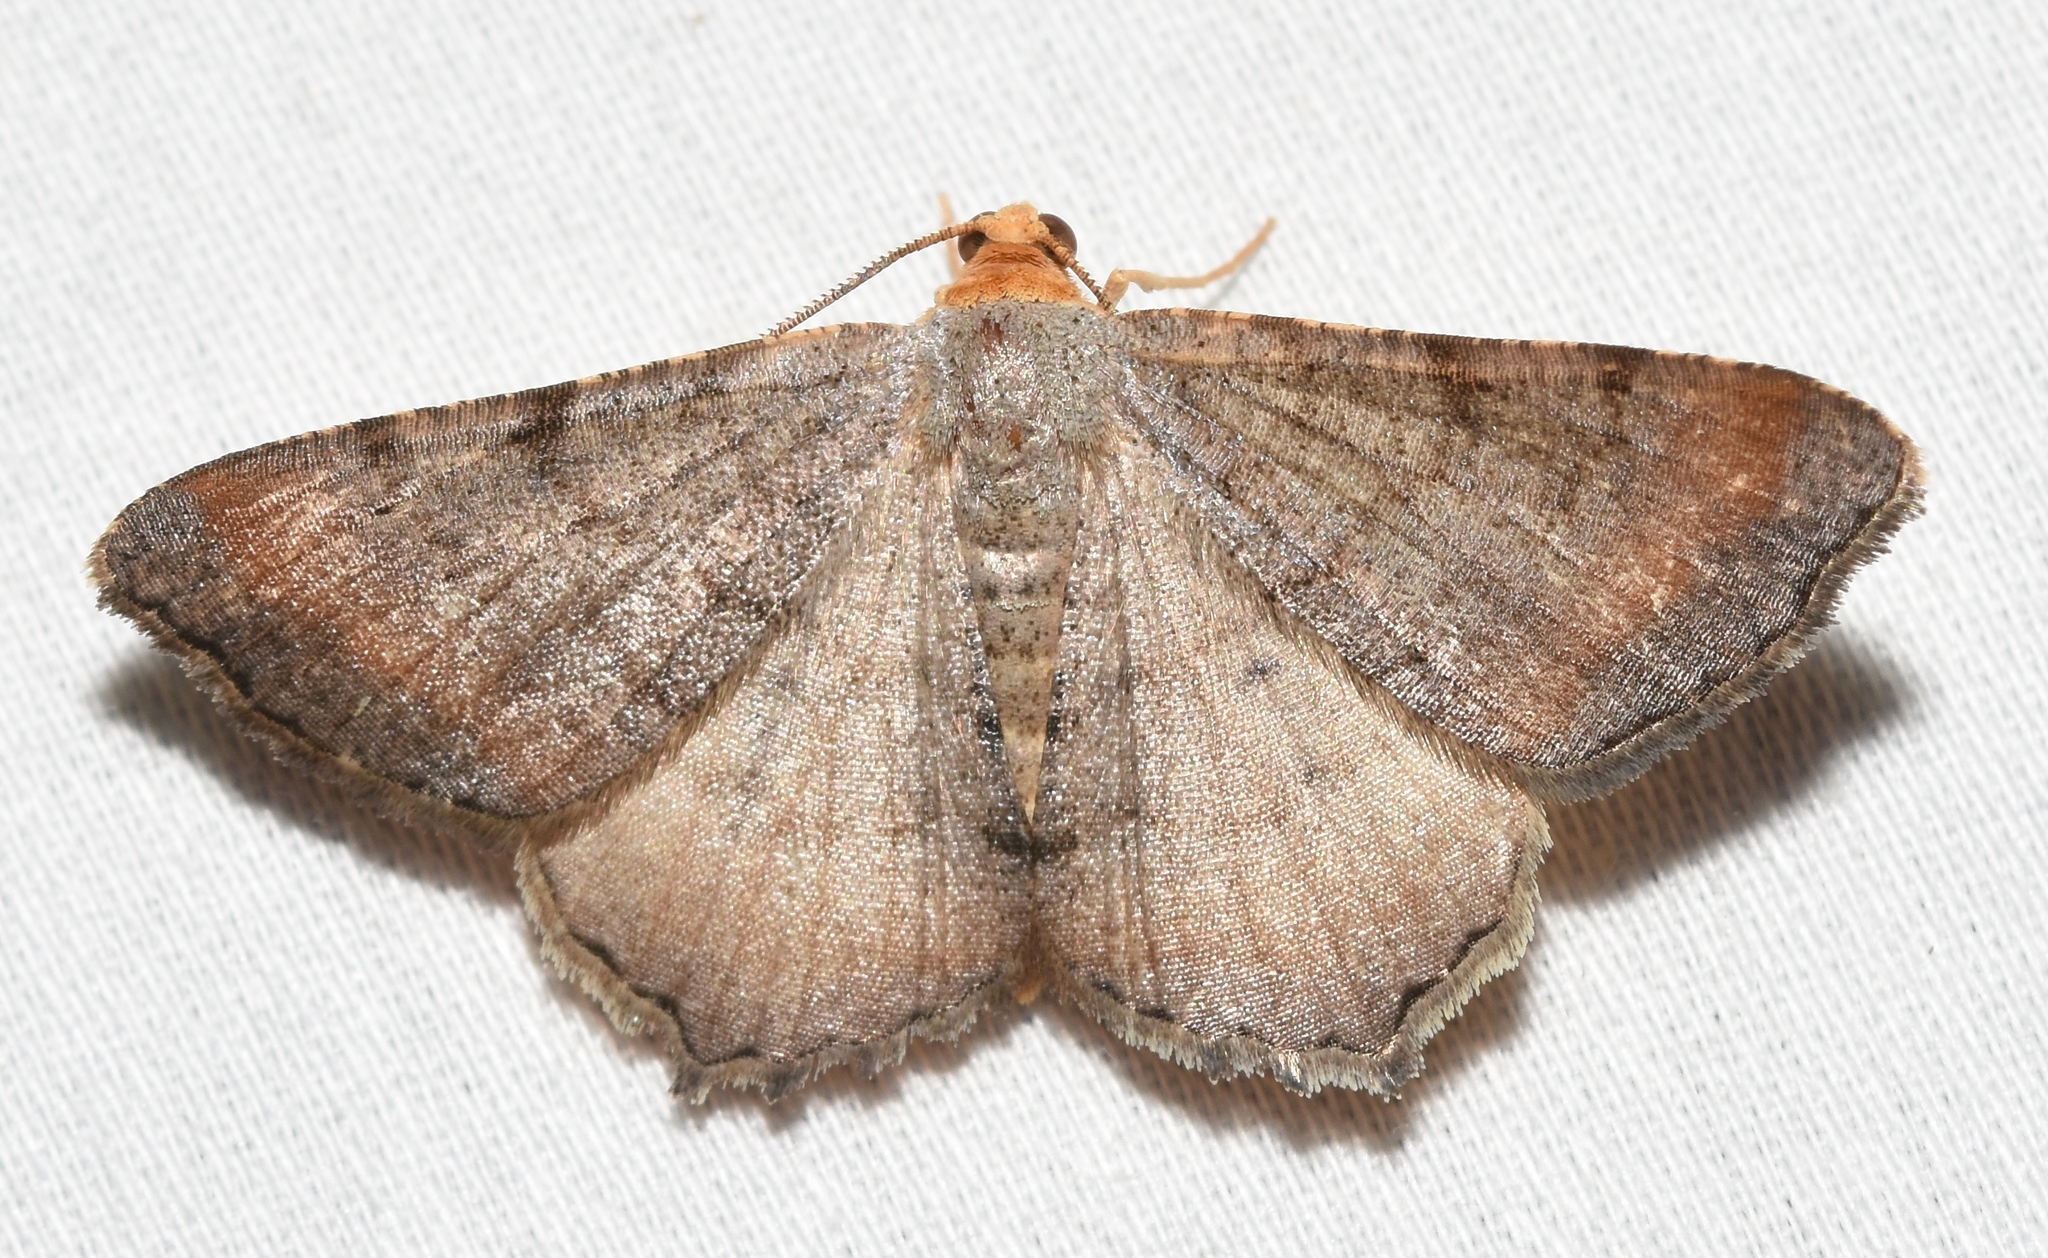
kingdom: Animalia
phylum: Arthropoda
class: Insecta
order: Lepidoptera
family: Geometridae
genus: Macaria
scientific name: Macaria transitaria
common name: Blurry chocolate angle
